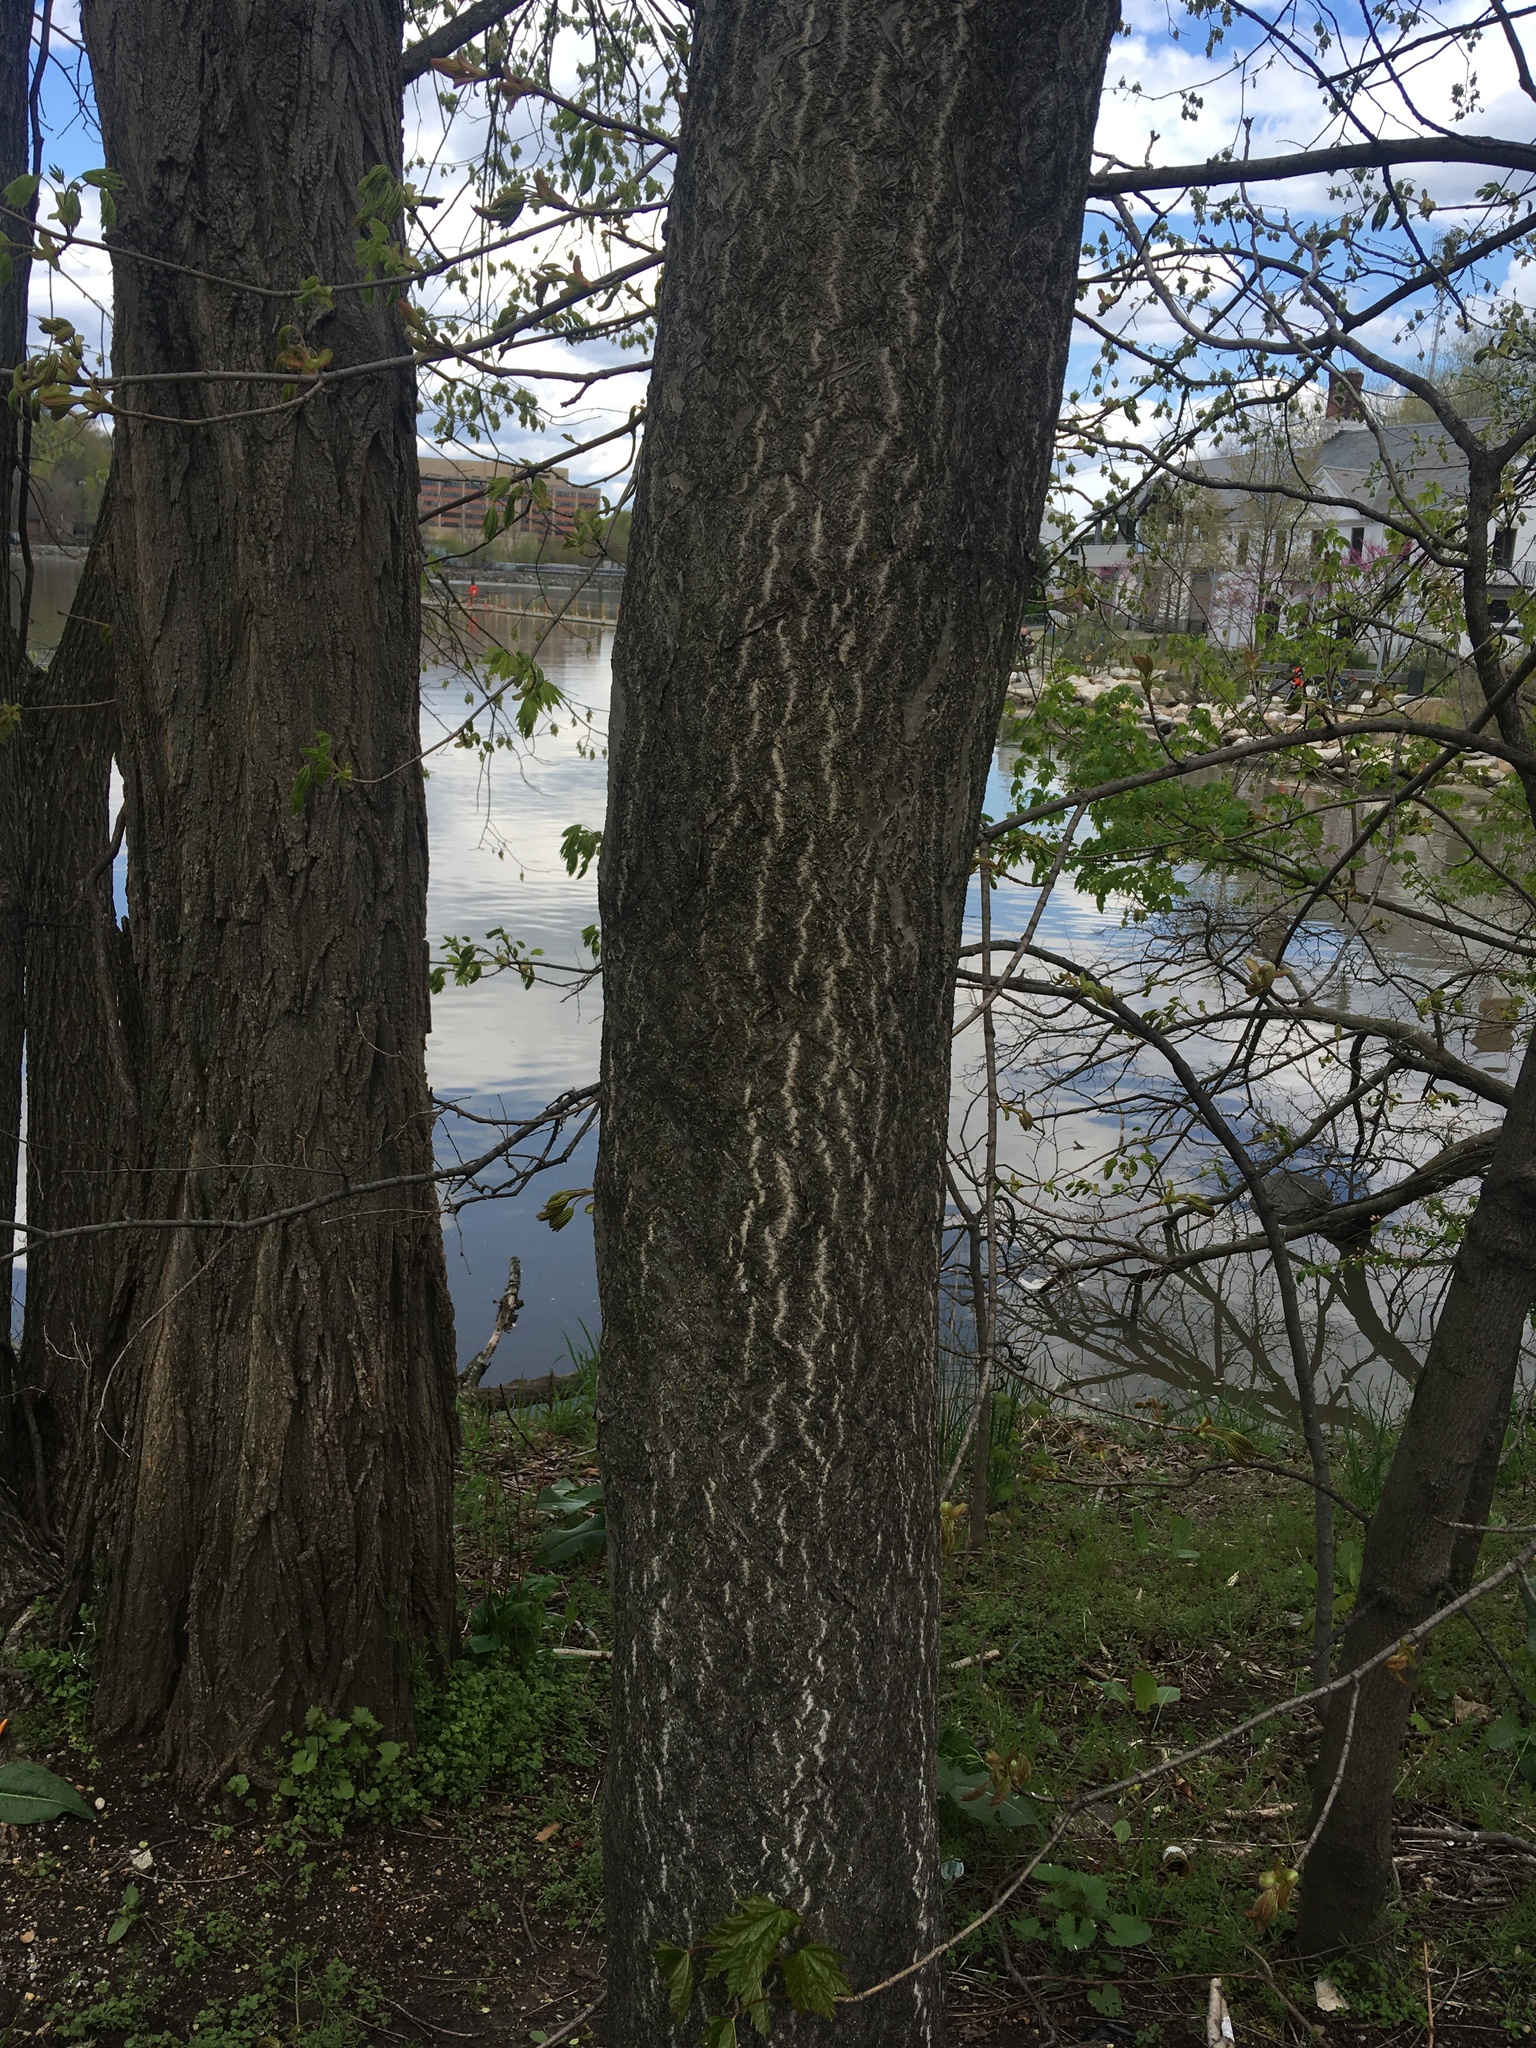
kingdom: Plantae
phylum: Tracheophyta
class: Magnoliopsida
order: Sapindales
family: Simaroubaceae
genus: Ailanthus
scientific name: Ailanthus altissima
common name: Tree-of-heaven
